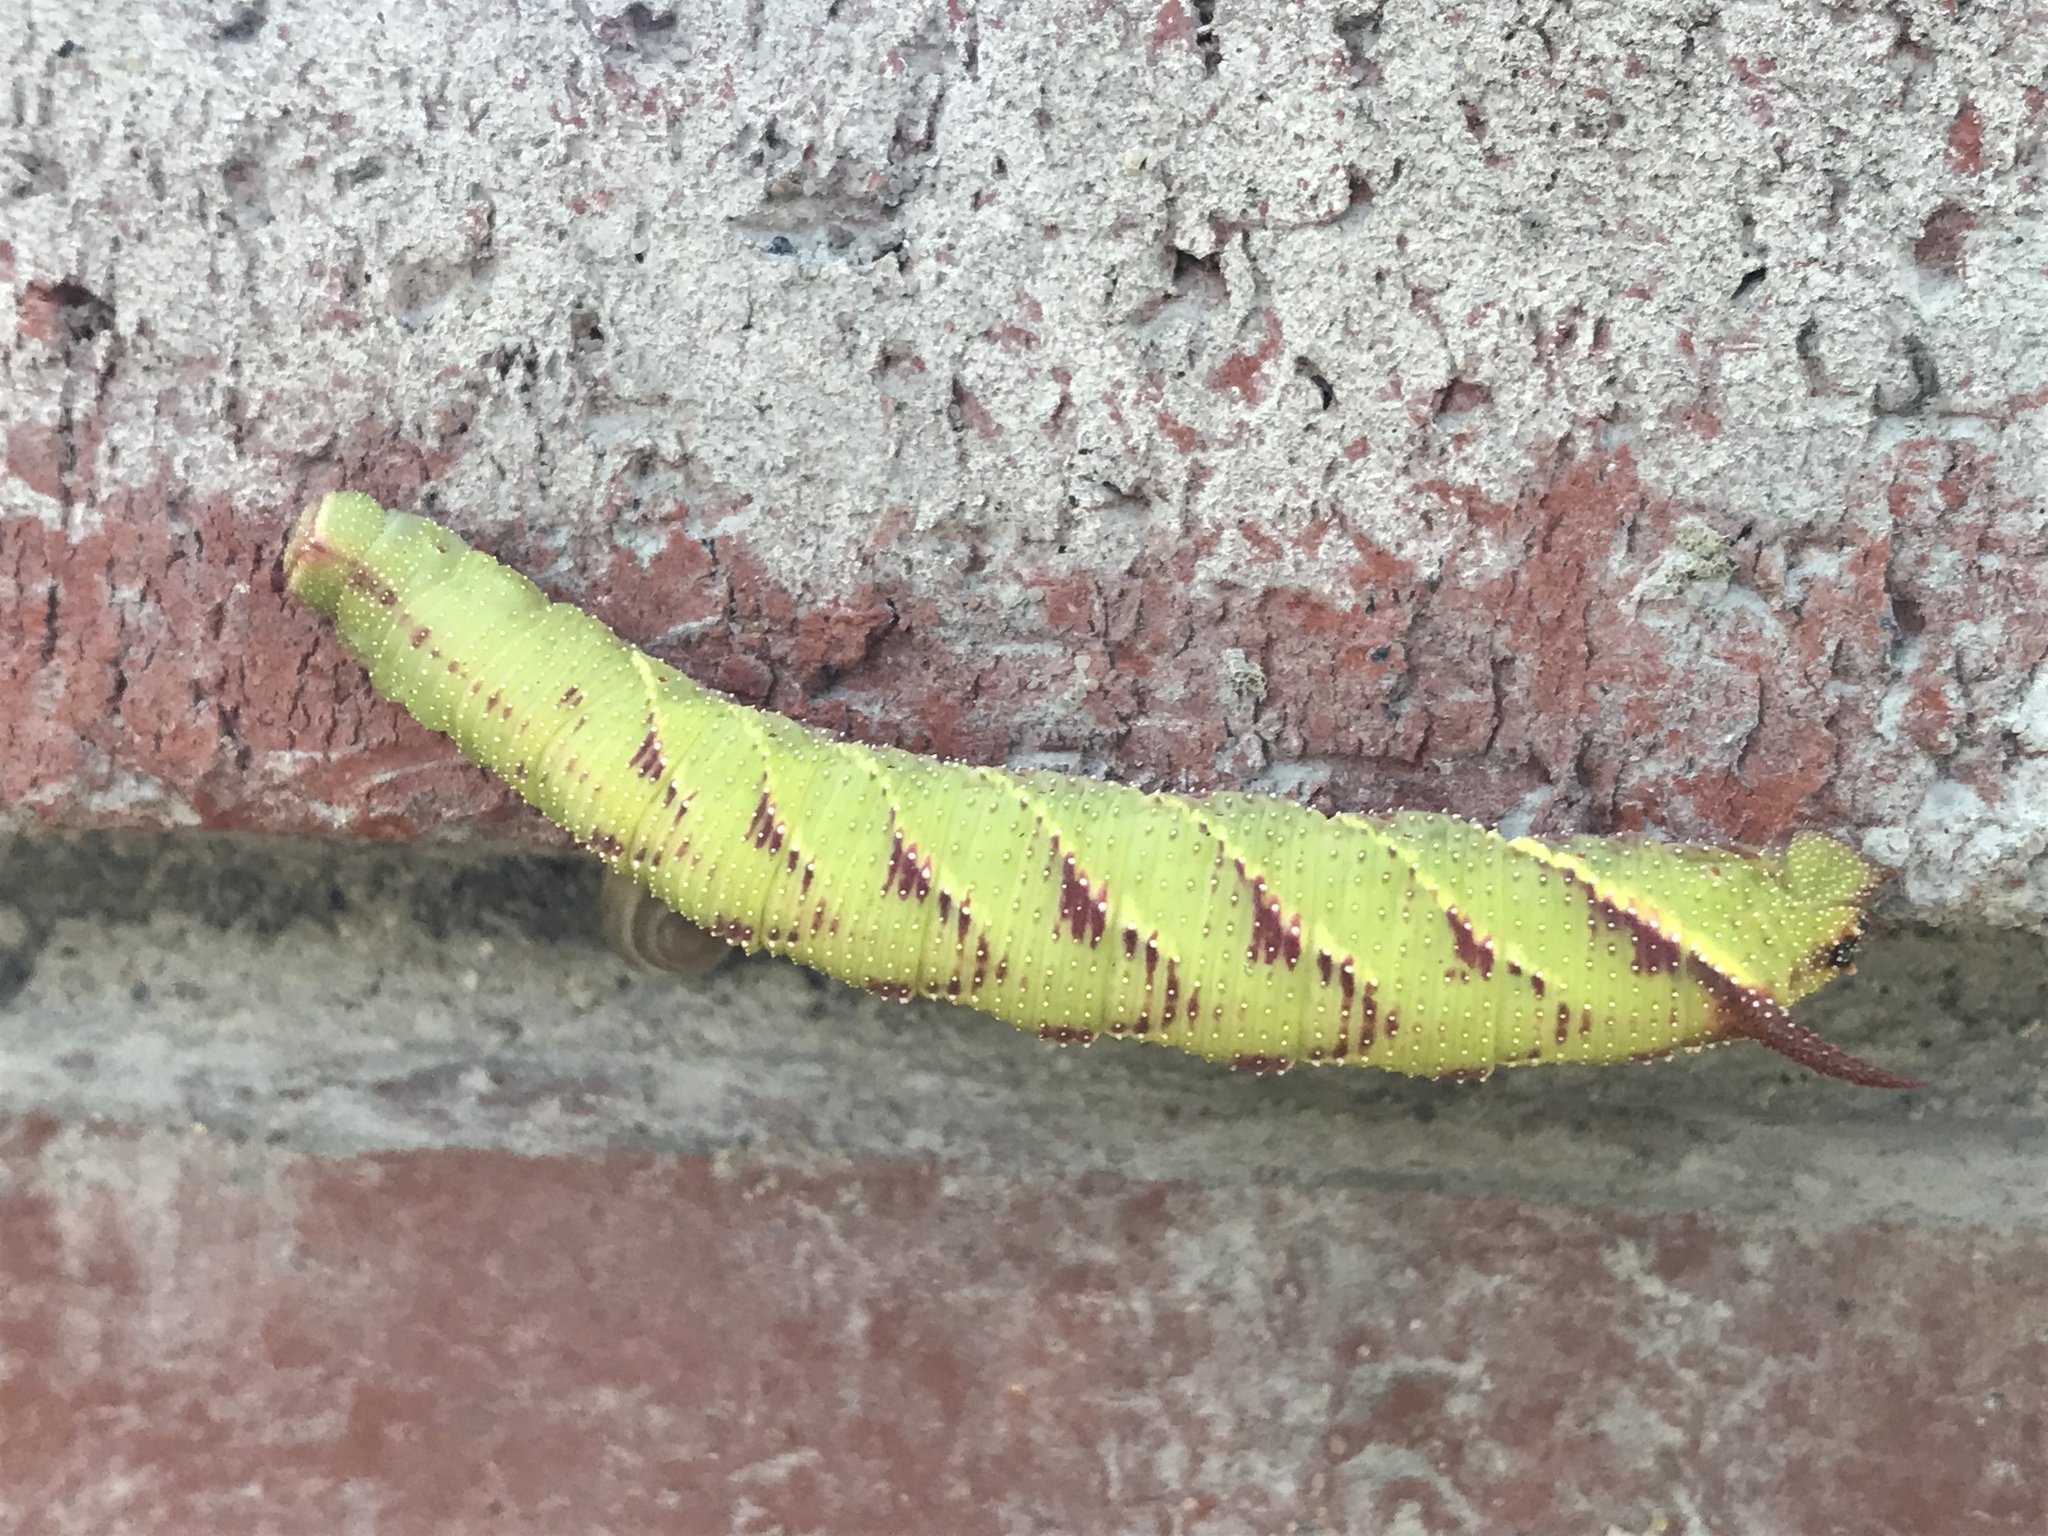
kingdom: Animalia
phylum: Arthropoda
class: Insecta
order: Lepidoptera
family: Sphingidae
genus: Amorpha
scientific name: Amorpha juglandis
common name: Walnut sphinx
